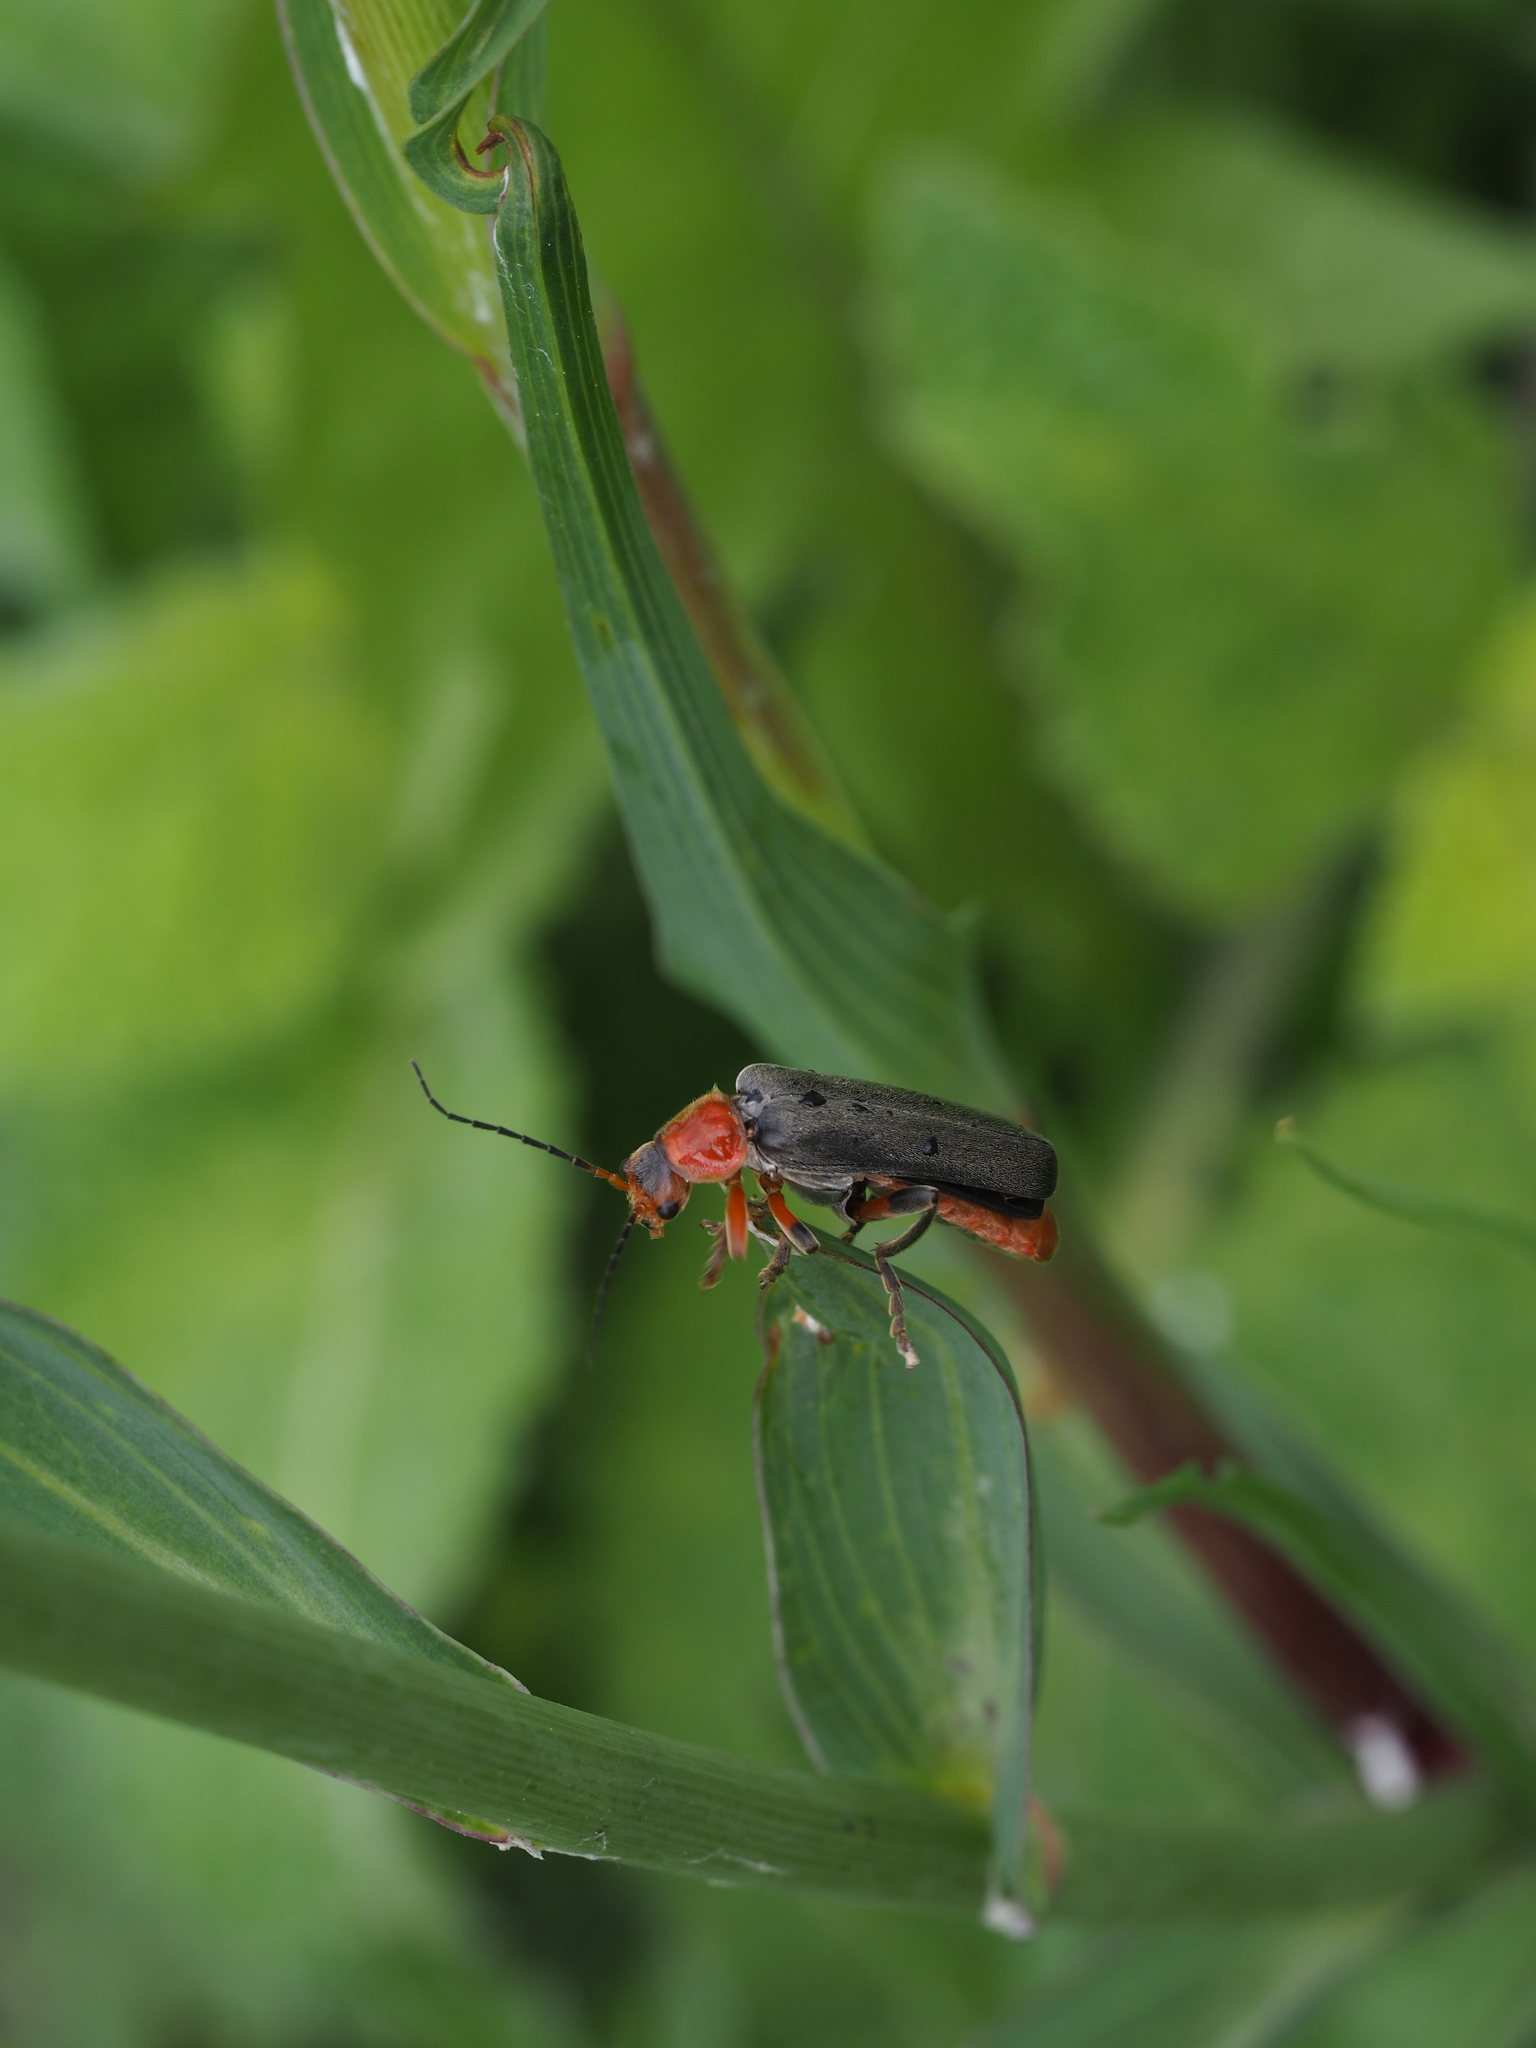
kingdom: Animalia
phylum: Arthropoda
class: Insecta
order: Coleoptera
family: Cantharidae
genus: Cantharis
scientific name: Cantharis livida
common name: Livid soldier beetle
